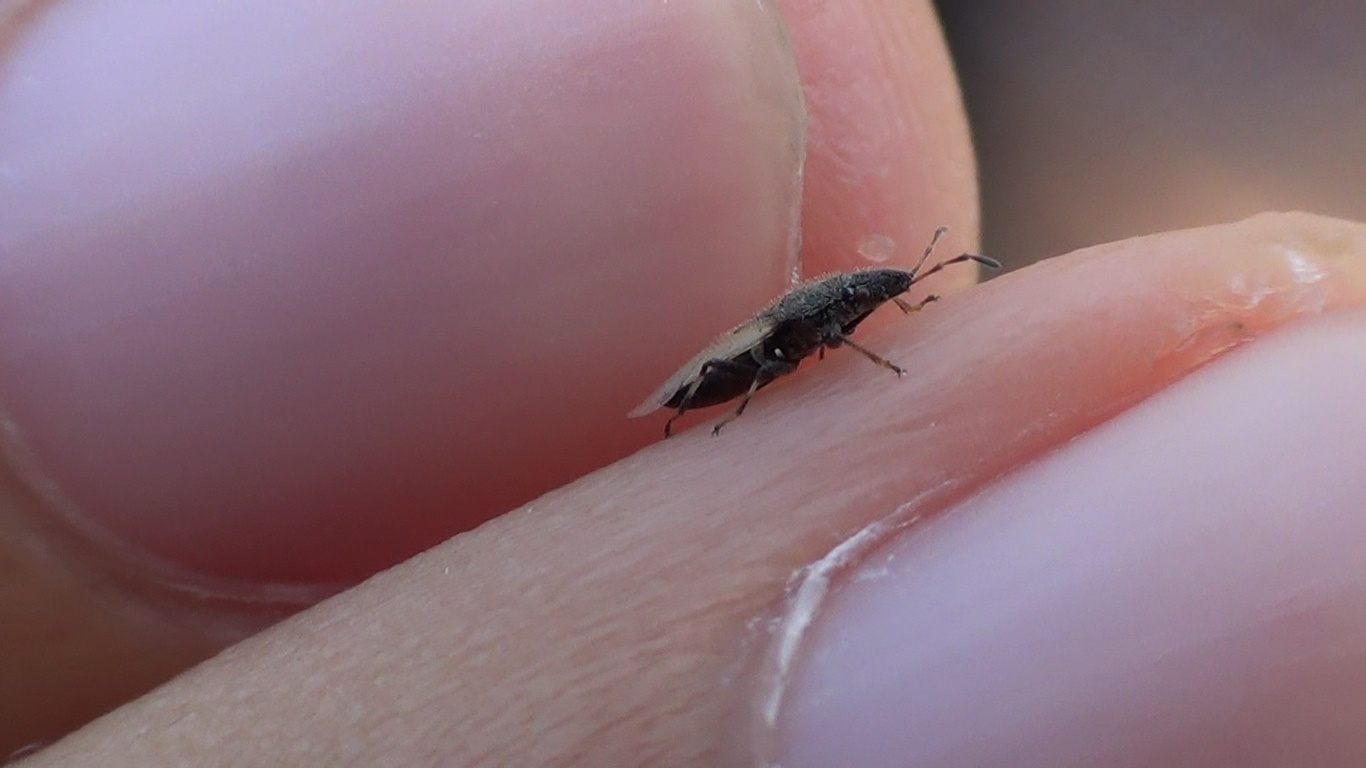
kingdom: Animalia
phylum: Arthropoda
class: Insecta
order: Hemiptera
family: Oxycarenidae
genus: Oxycarenus
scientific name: Oxycarenus hyalinipennis
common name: Cotton seed bug
